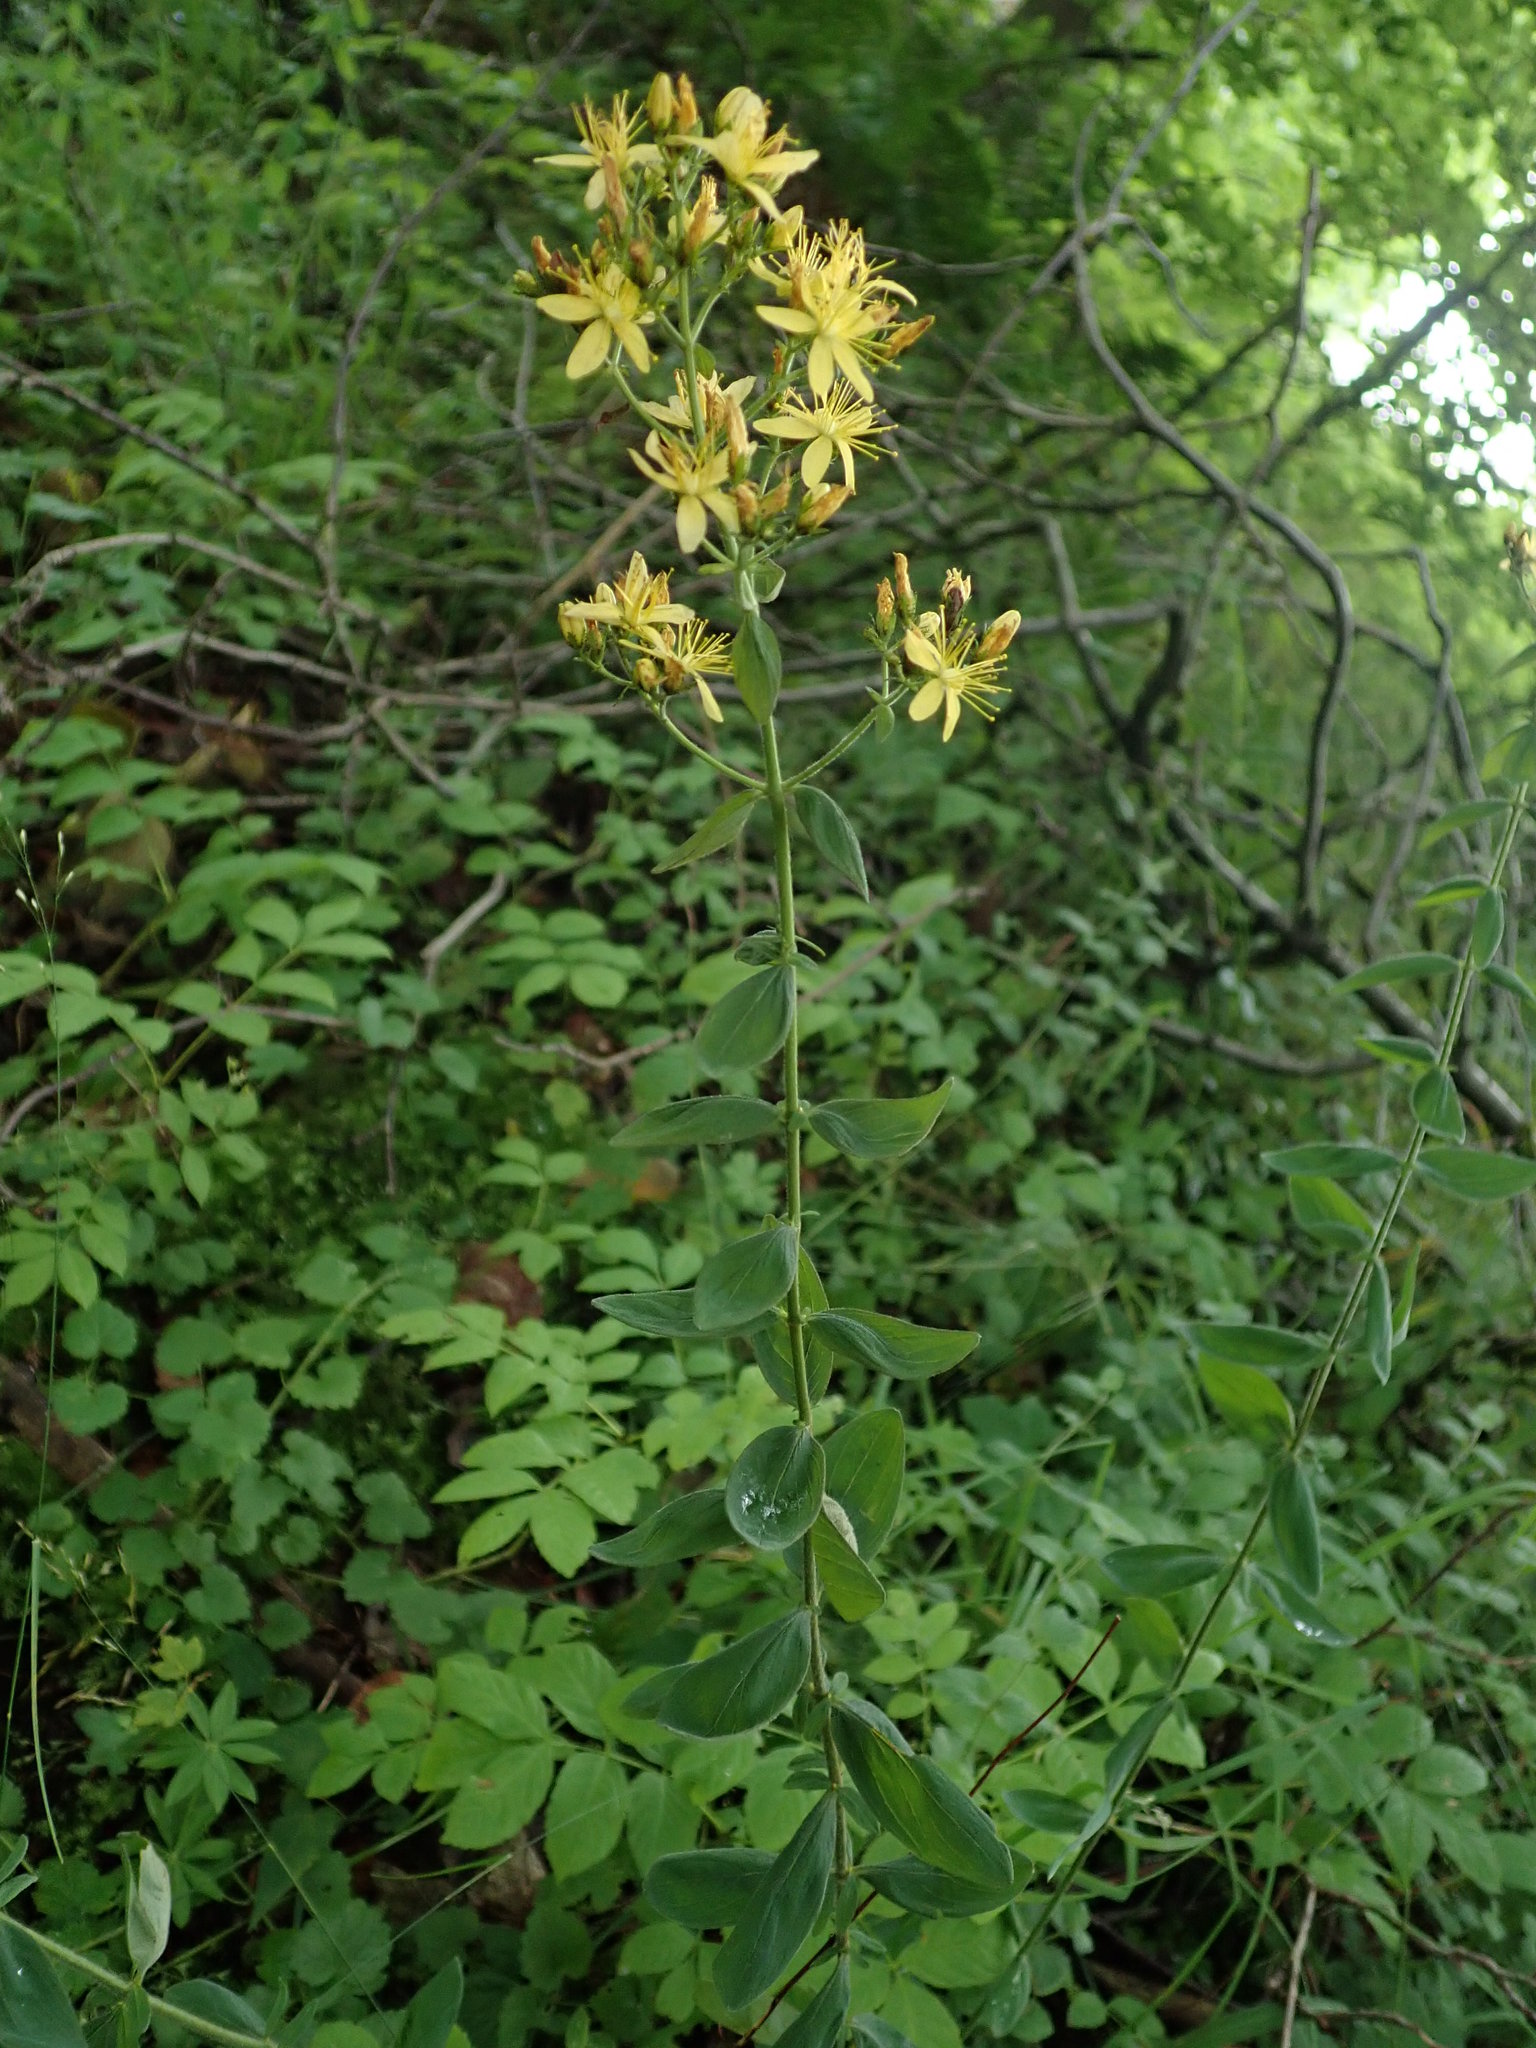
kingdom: Plantae
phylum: Tracheophyta
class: Magnoliopsida
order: Malpighiales
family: Hypericaceae
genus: Hypericum
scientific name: Hypericum hirsutum
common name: Hairy st. john's-wort
